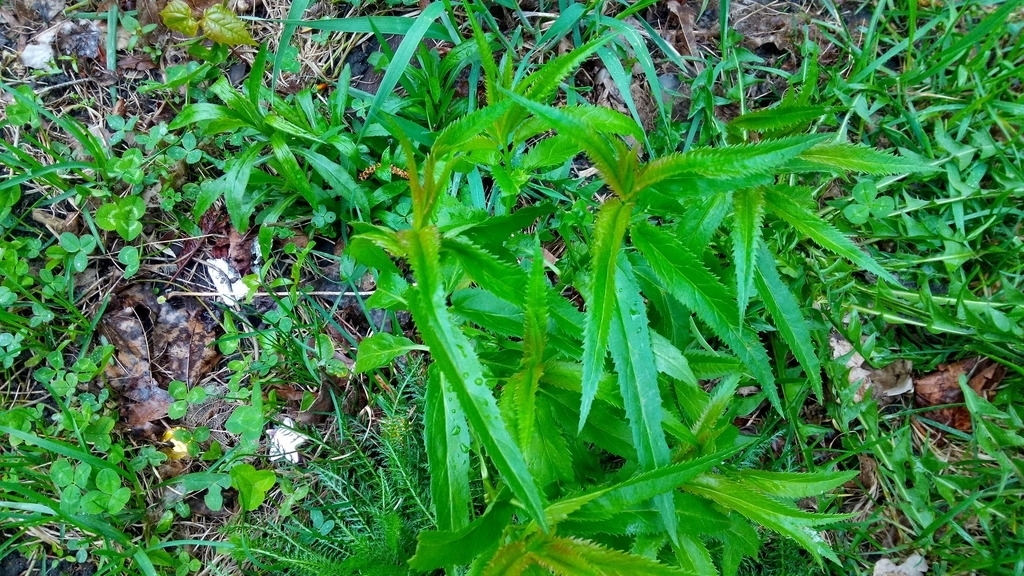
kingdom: Plantae
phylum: Tracheophyta
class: Magnoliopsida
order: Lamiales
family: Plantaginaceae
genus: Veronica
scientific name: Veronica longifolia
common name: Garden speedwell
